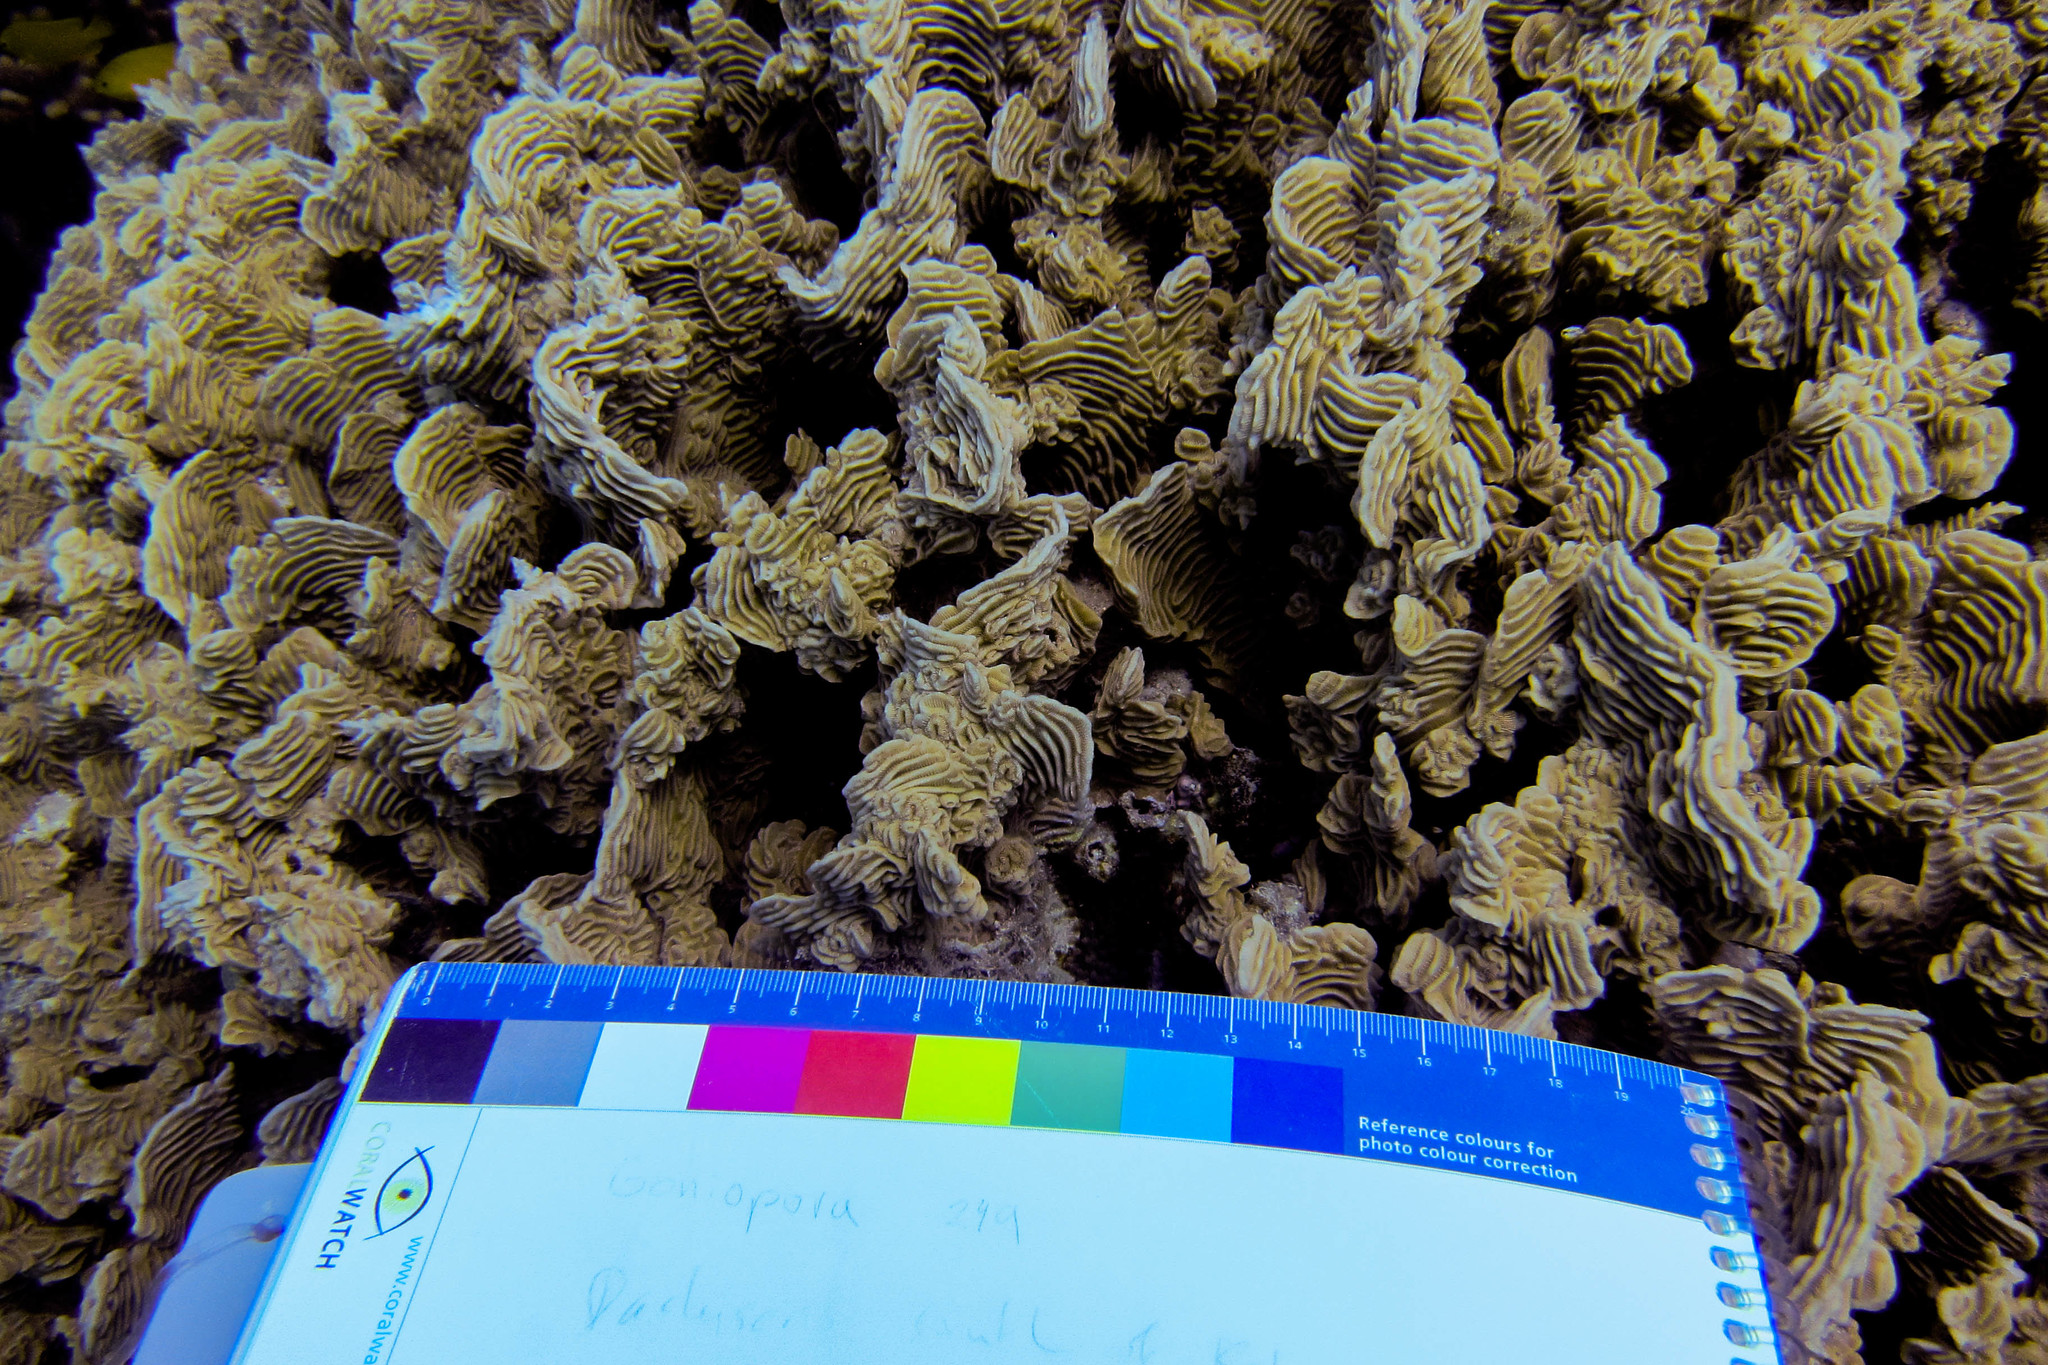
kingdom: Animalia
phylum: Cnidaria
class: Anthozoa
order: Scleractinia
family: Pachyseridae
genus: Pachyseris
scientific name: Pachyseris rugosa
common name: Serpent coral
